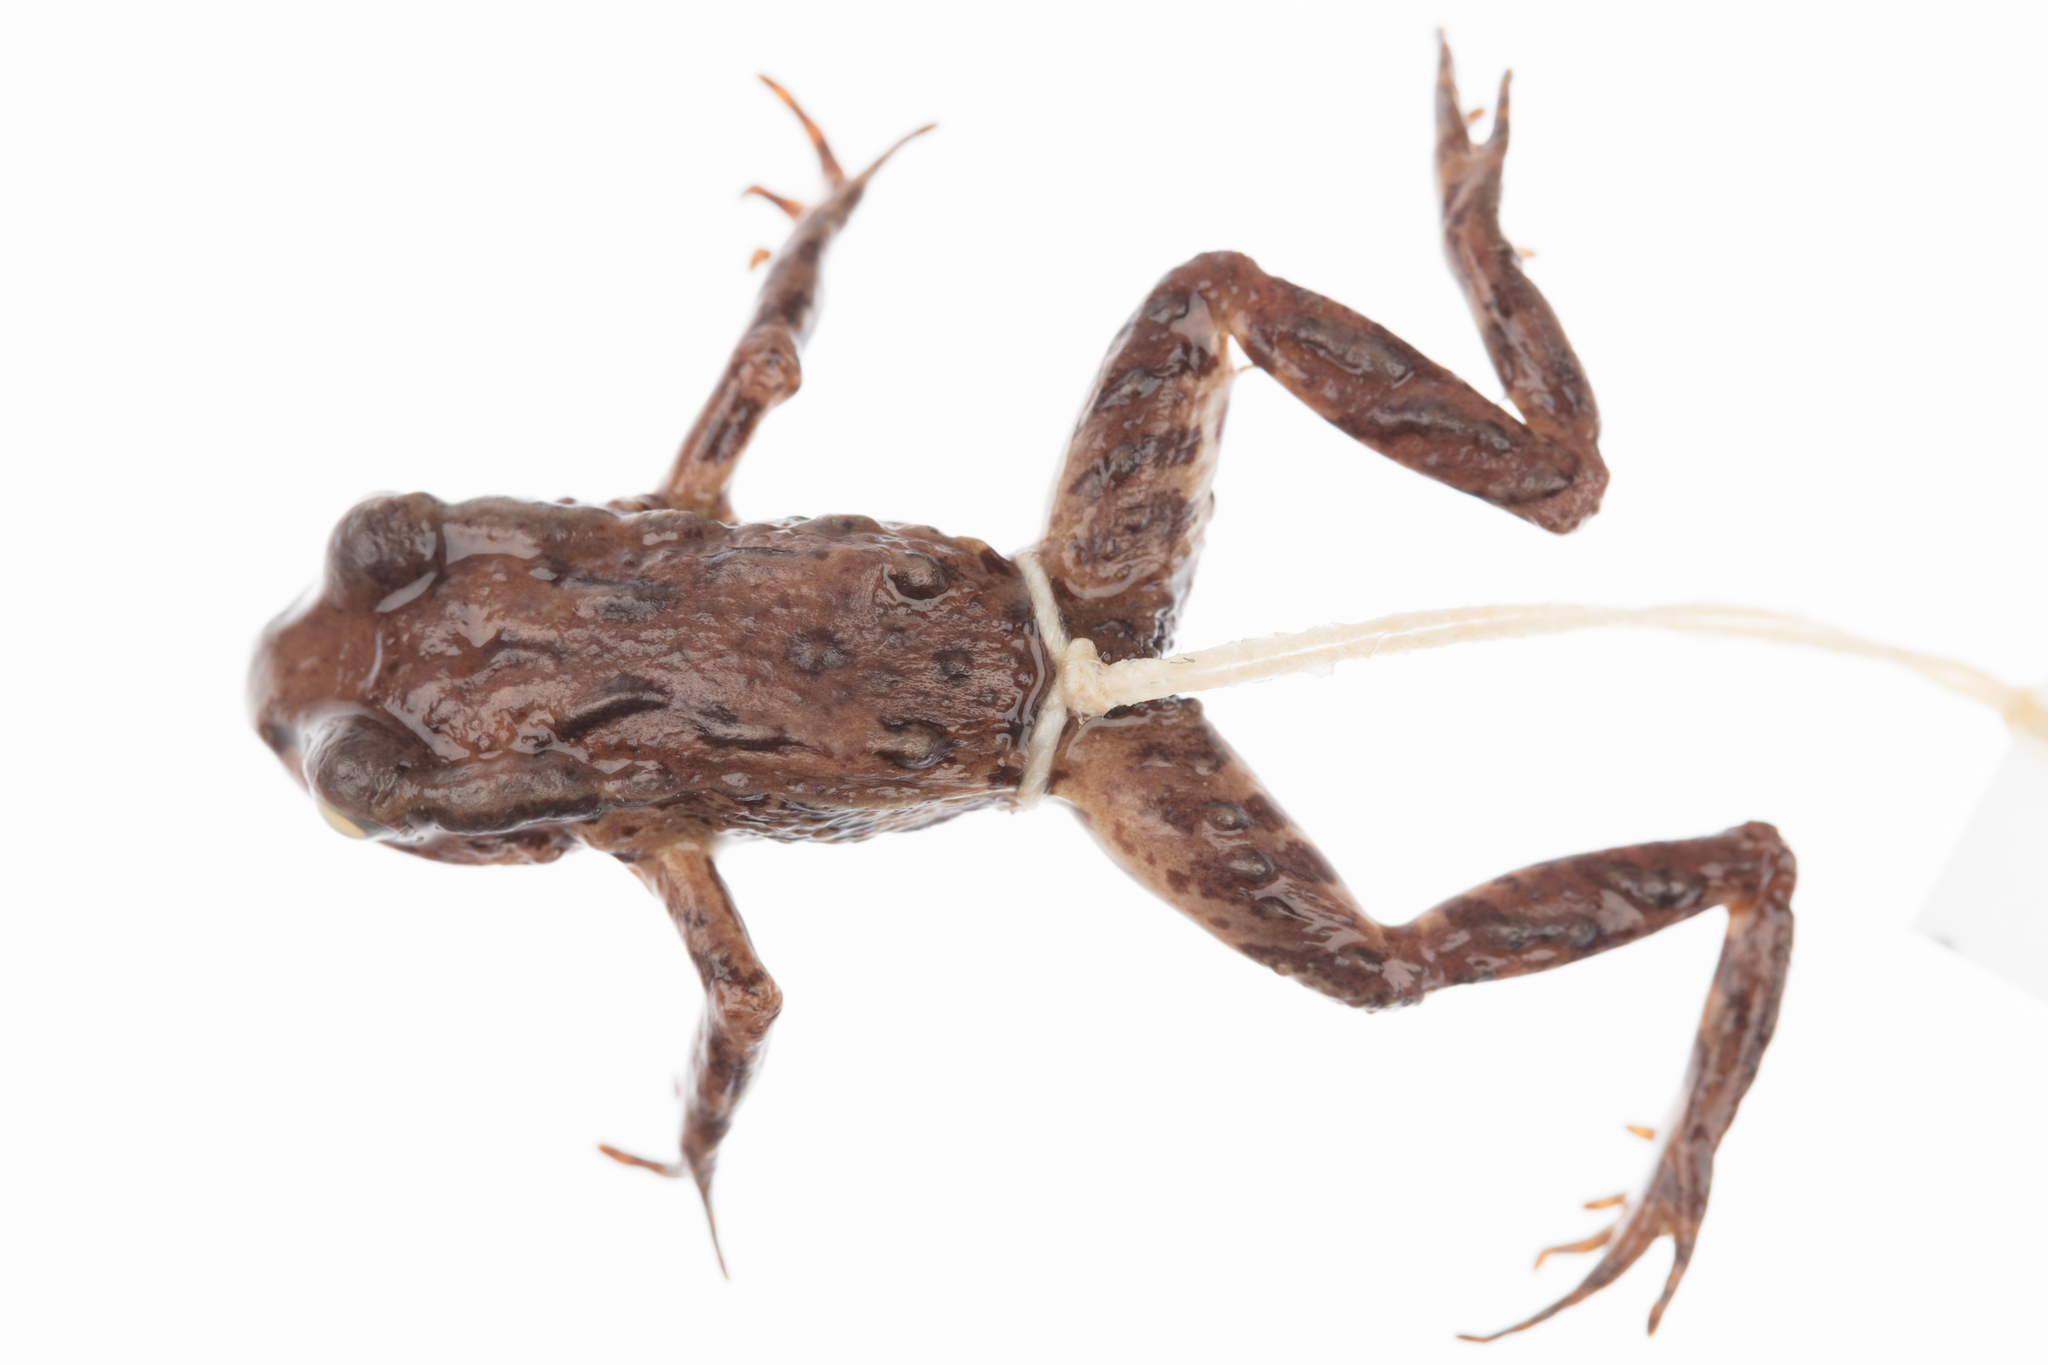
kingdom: Animalia
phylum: Chordata
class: Amphibia
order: Anura
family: Leiopelmatidae
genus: Leiopelma
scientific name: Leiopelma archeyi
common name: Archey's frog
